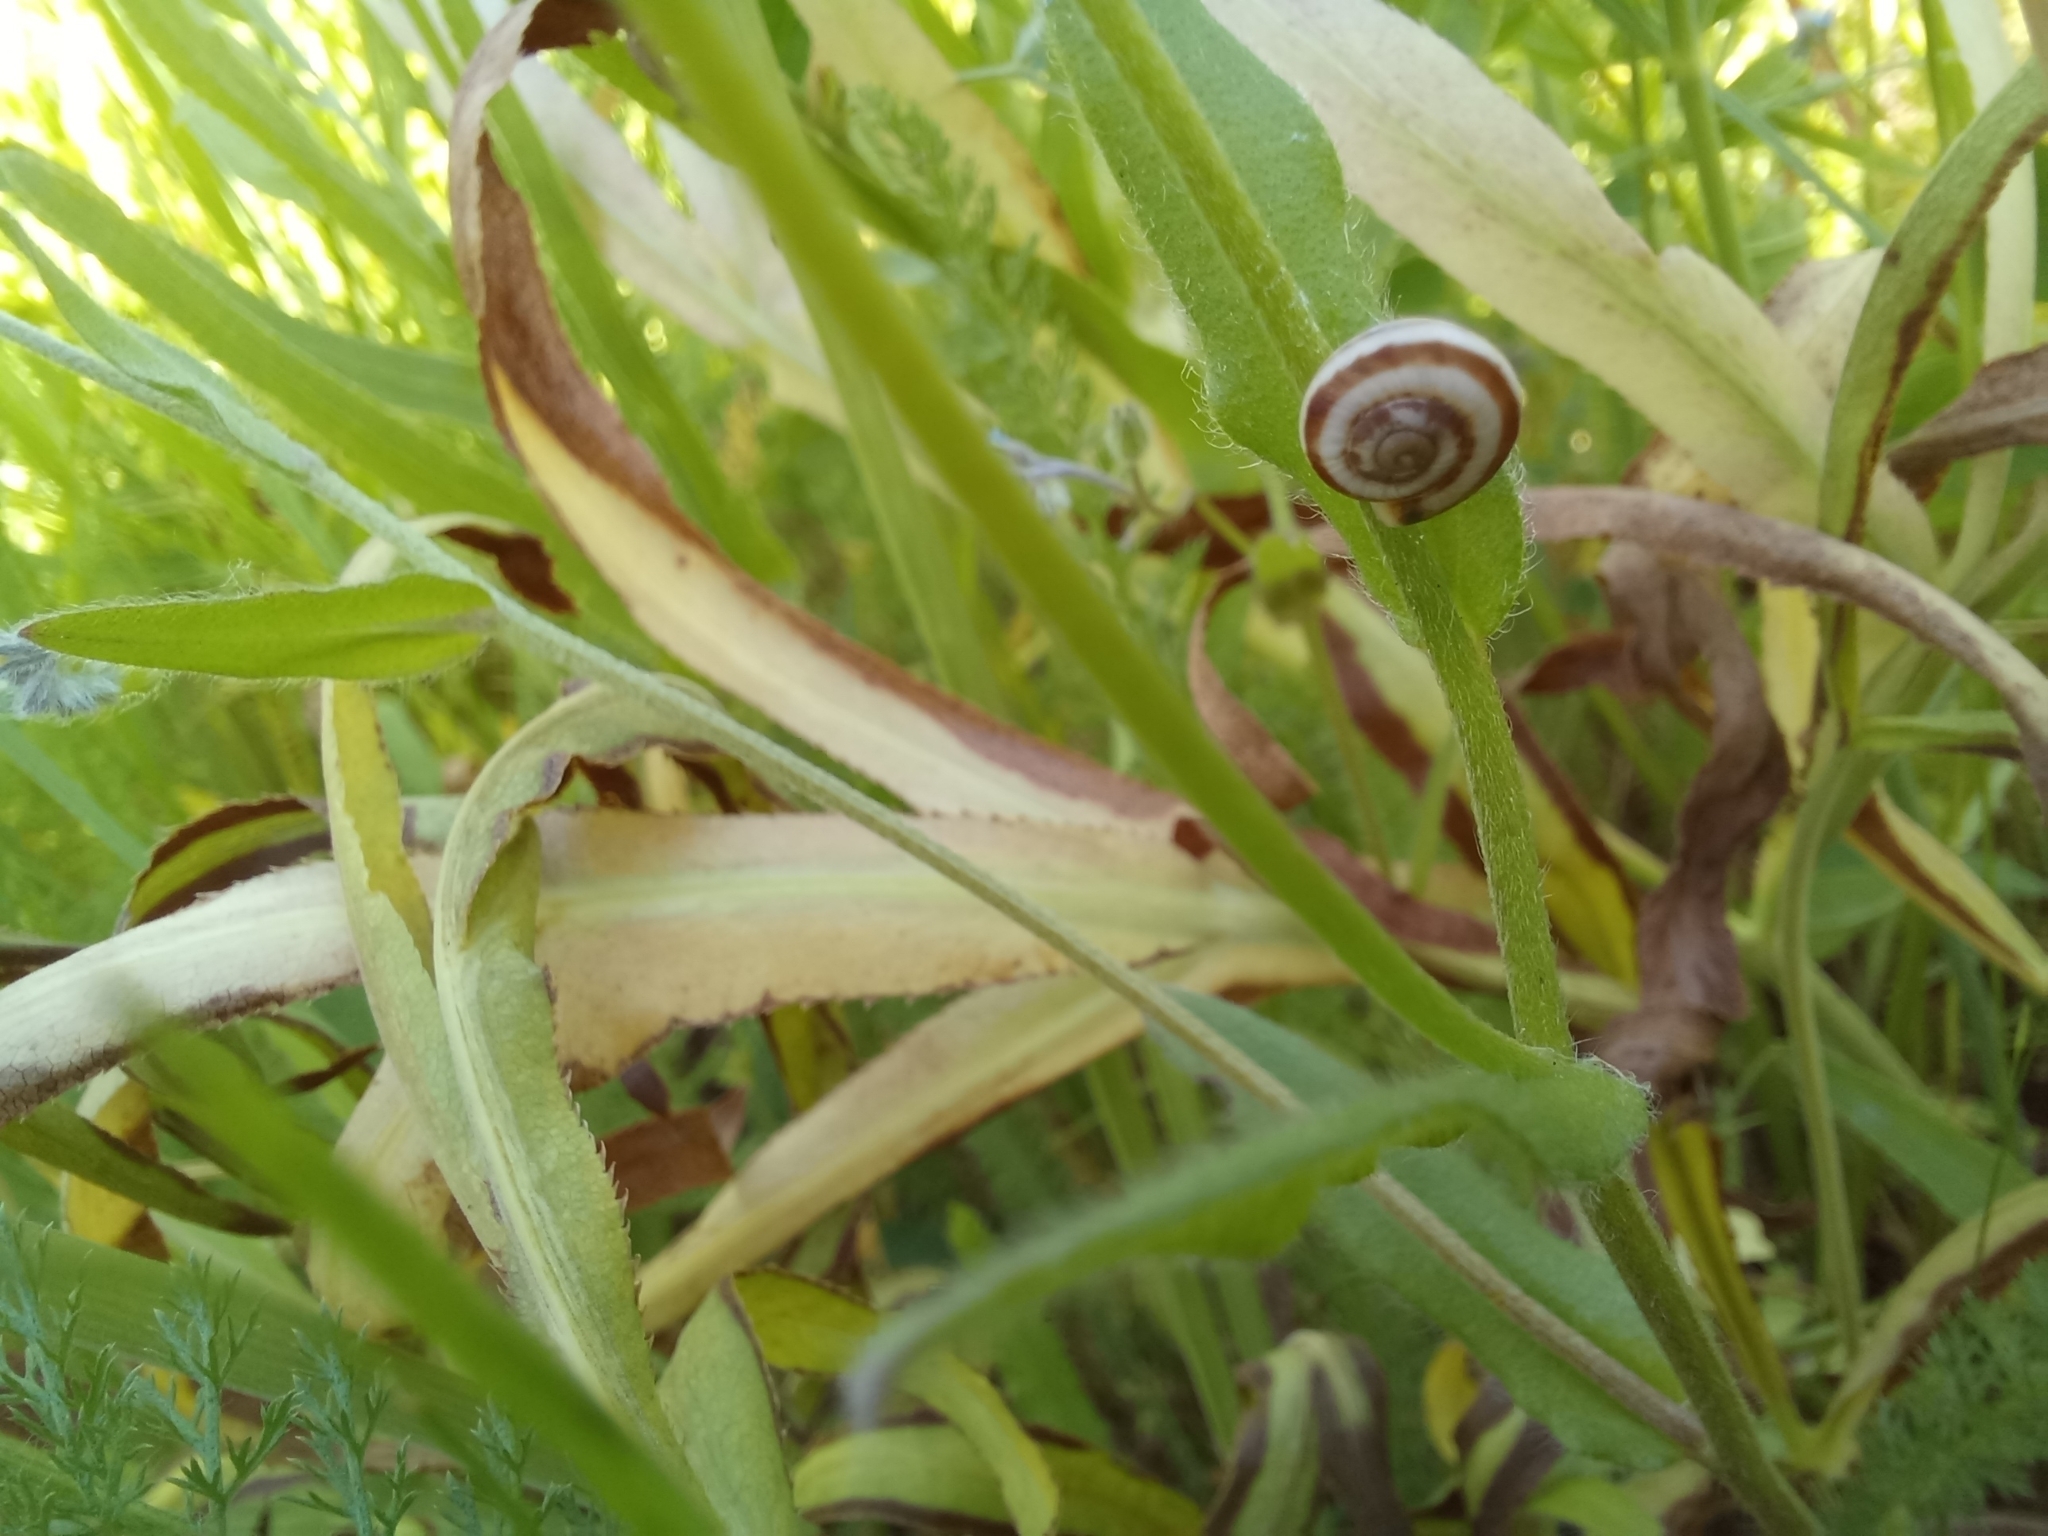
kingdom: Animalia
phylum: Mollusca
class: Gastropoda
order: Stylommatophora
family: Geomitridae
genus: Xeropicta
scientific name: Xeropicta derbentina
